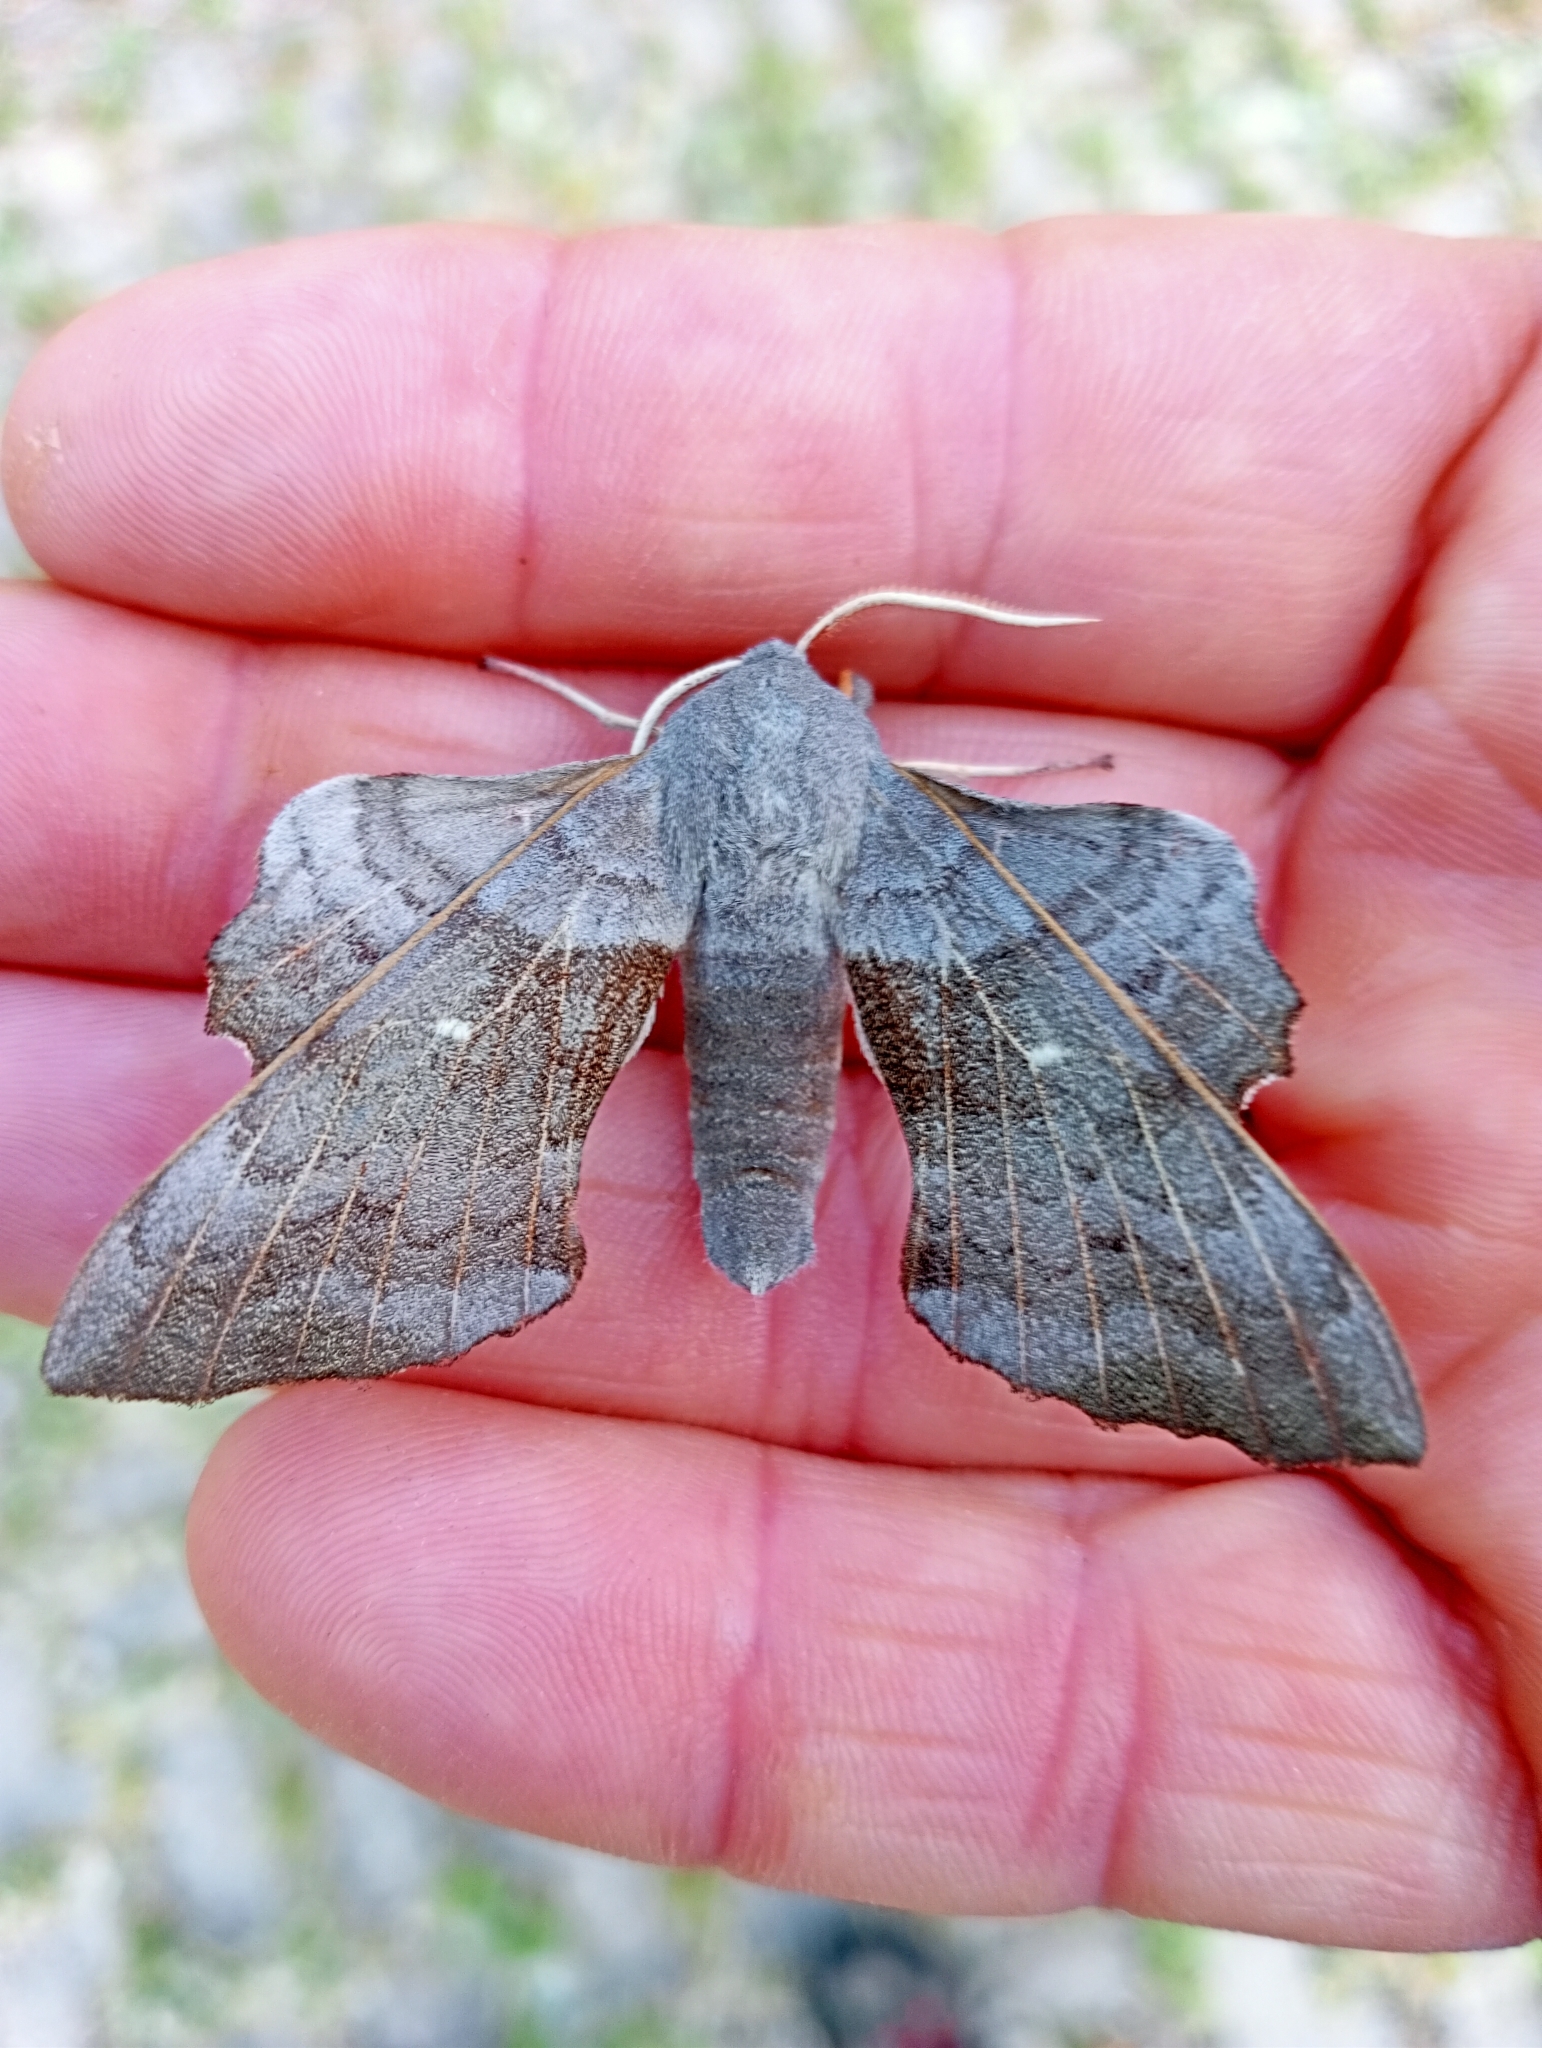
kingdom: Animalia
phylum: Arthropoda
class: Insecta
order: Lepidoptera
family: Sphingidae
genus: Laothoe
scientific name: Laothoe populi
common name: Poplar hawk-moth
